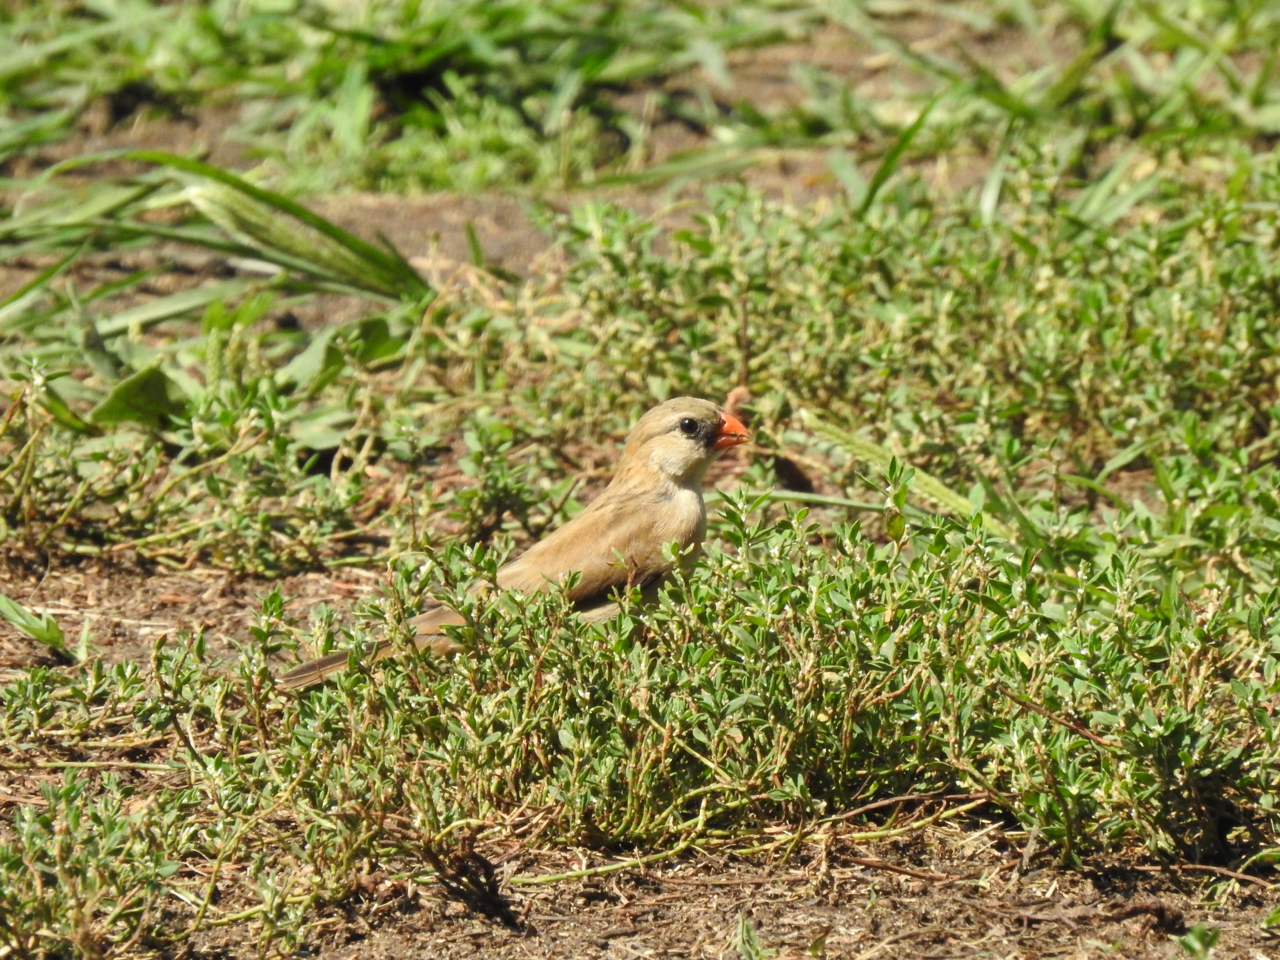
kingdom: Animalia
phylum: Chordata
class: Aves
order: Passeriformes
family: Viduidae
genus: Vidua
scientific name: Vidua macroura
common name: Pin-tailed whydah
